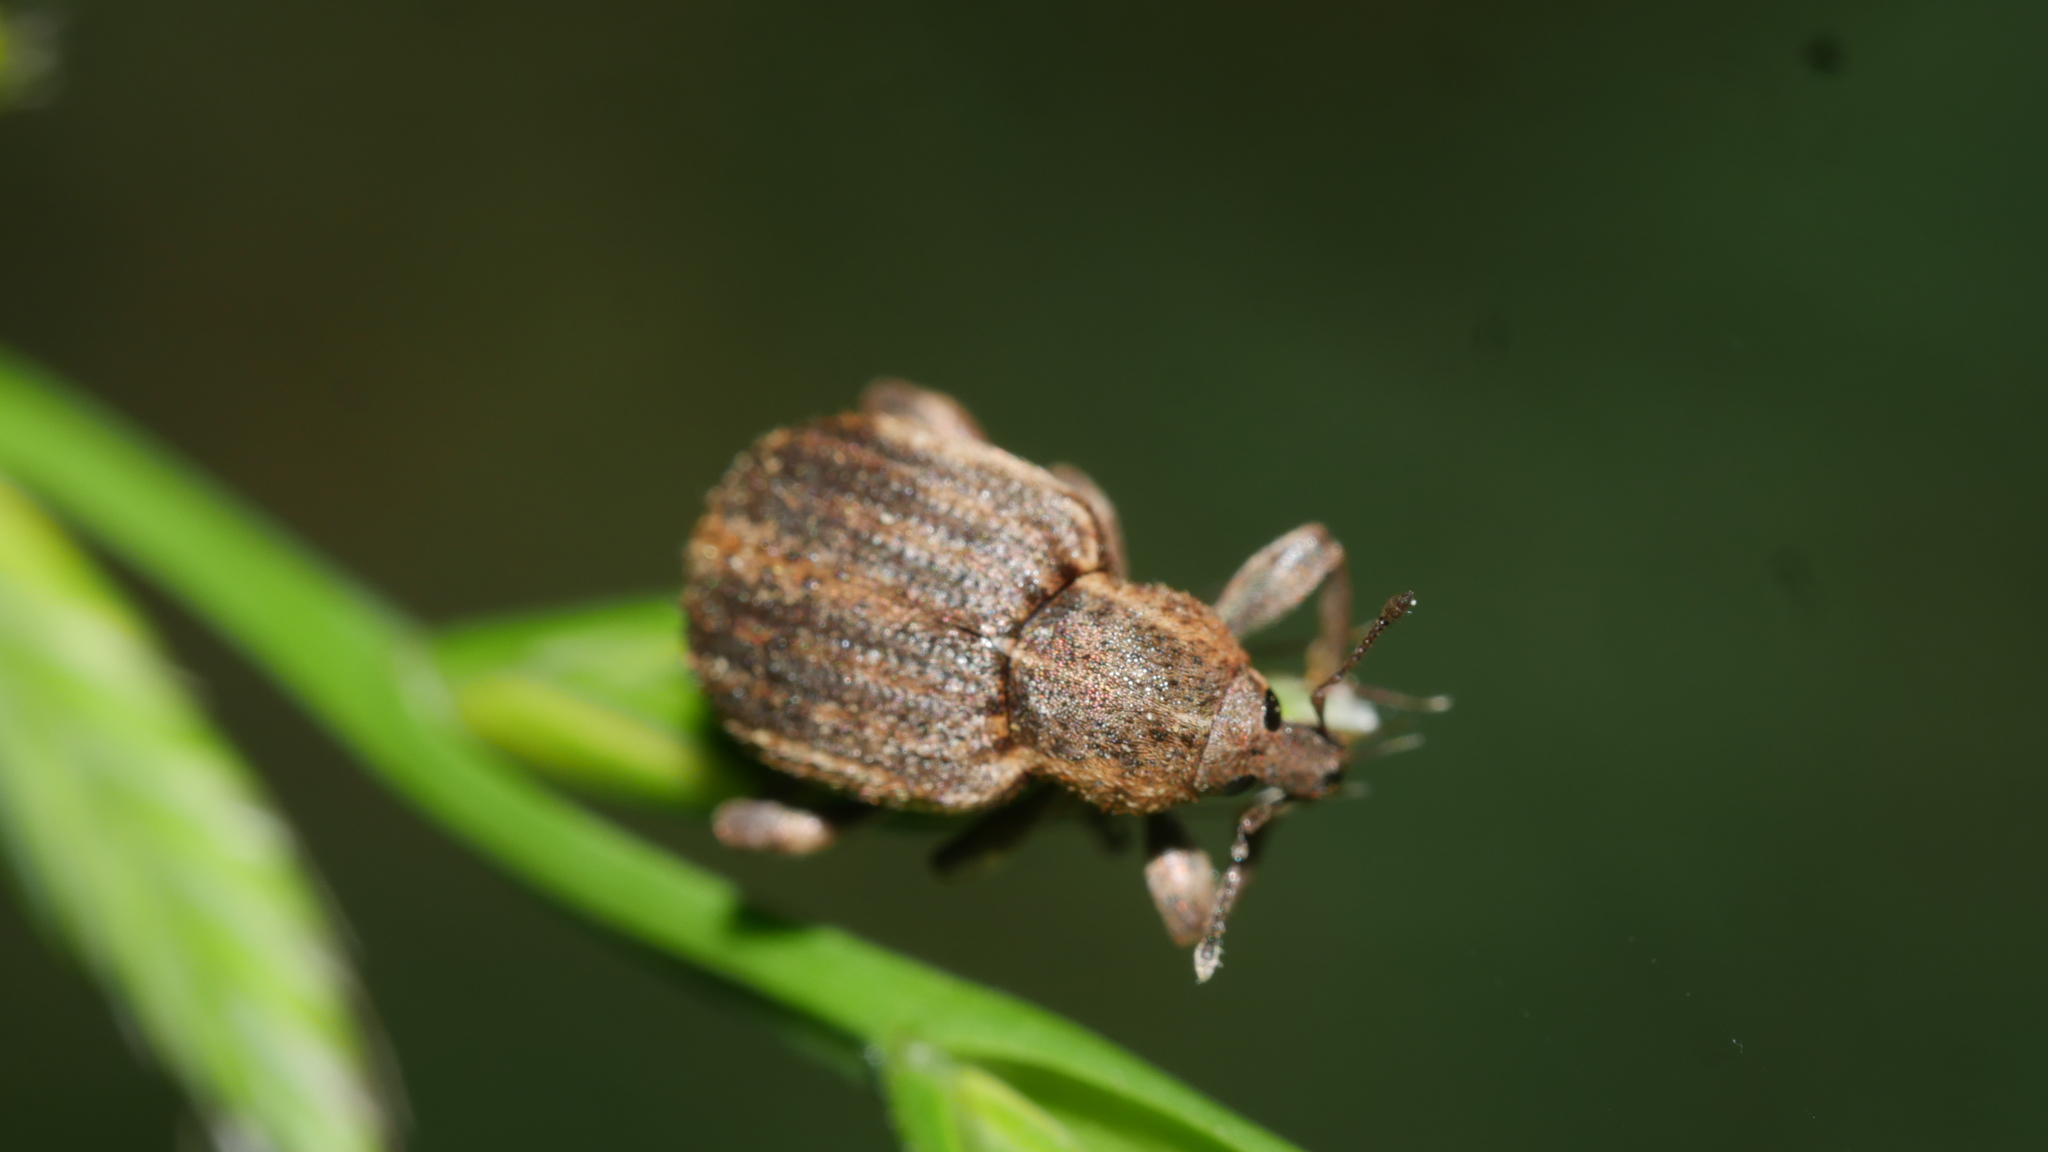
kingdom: Animalia
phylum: Arthropoda
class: Insecta
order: Coleoptera
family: Curculionidae
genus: Brachypera
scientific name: Brachypera zoilus
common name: Clover leaf weevil
